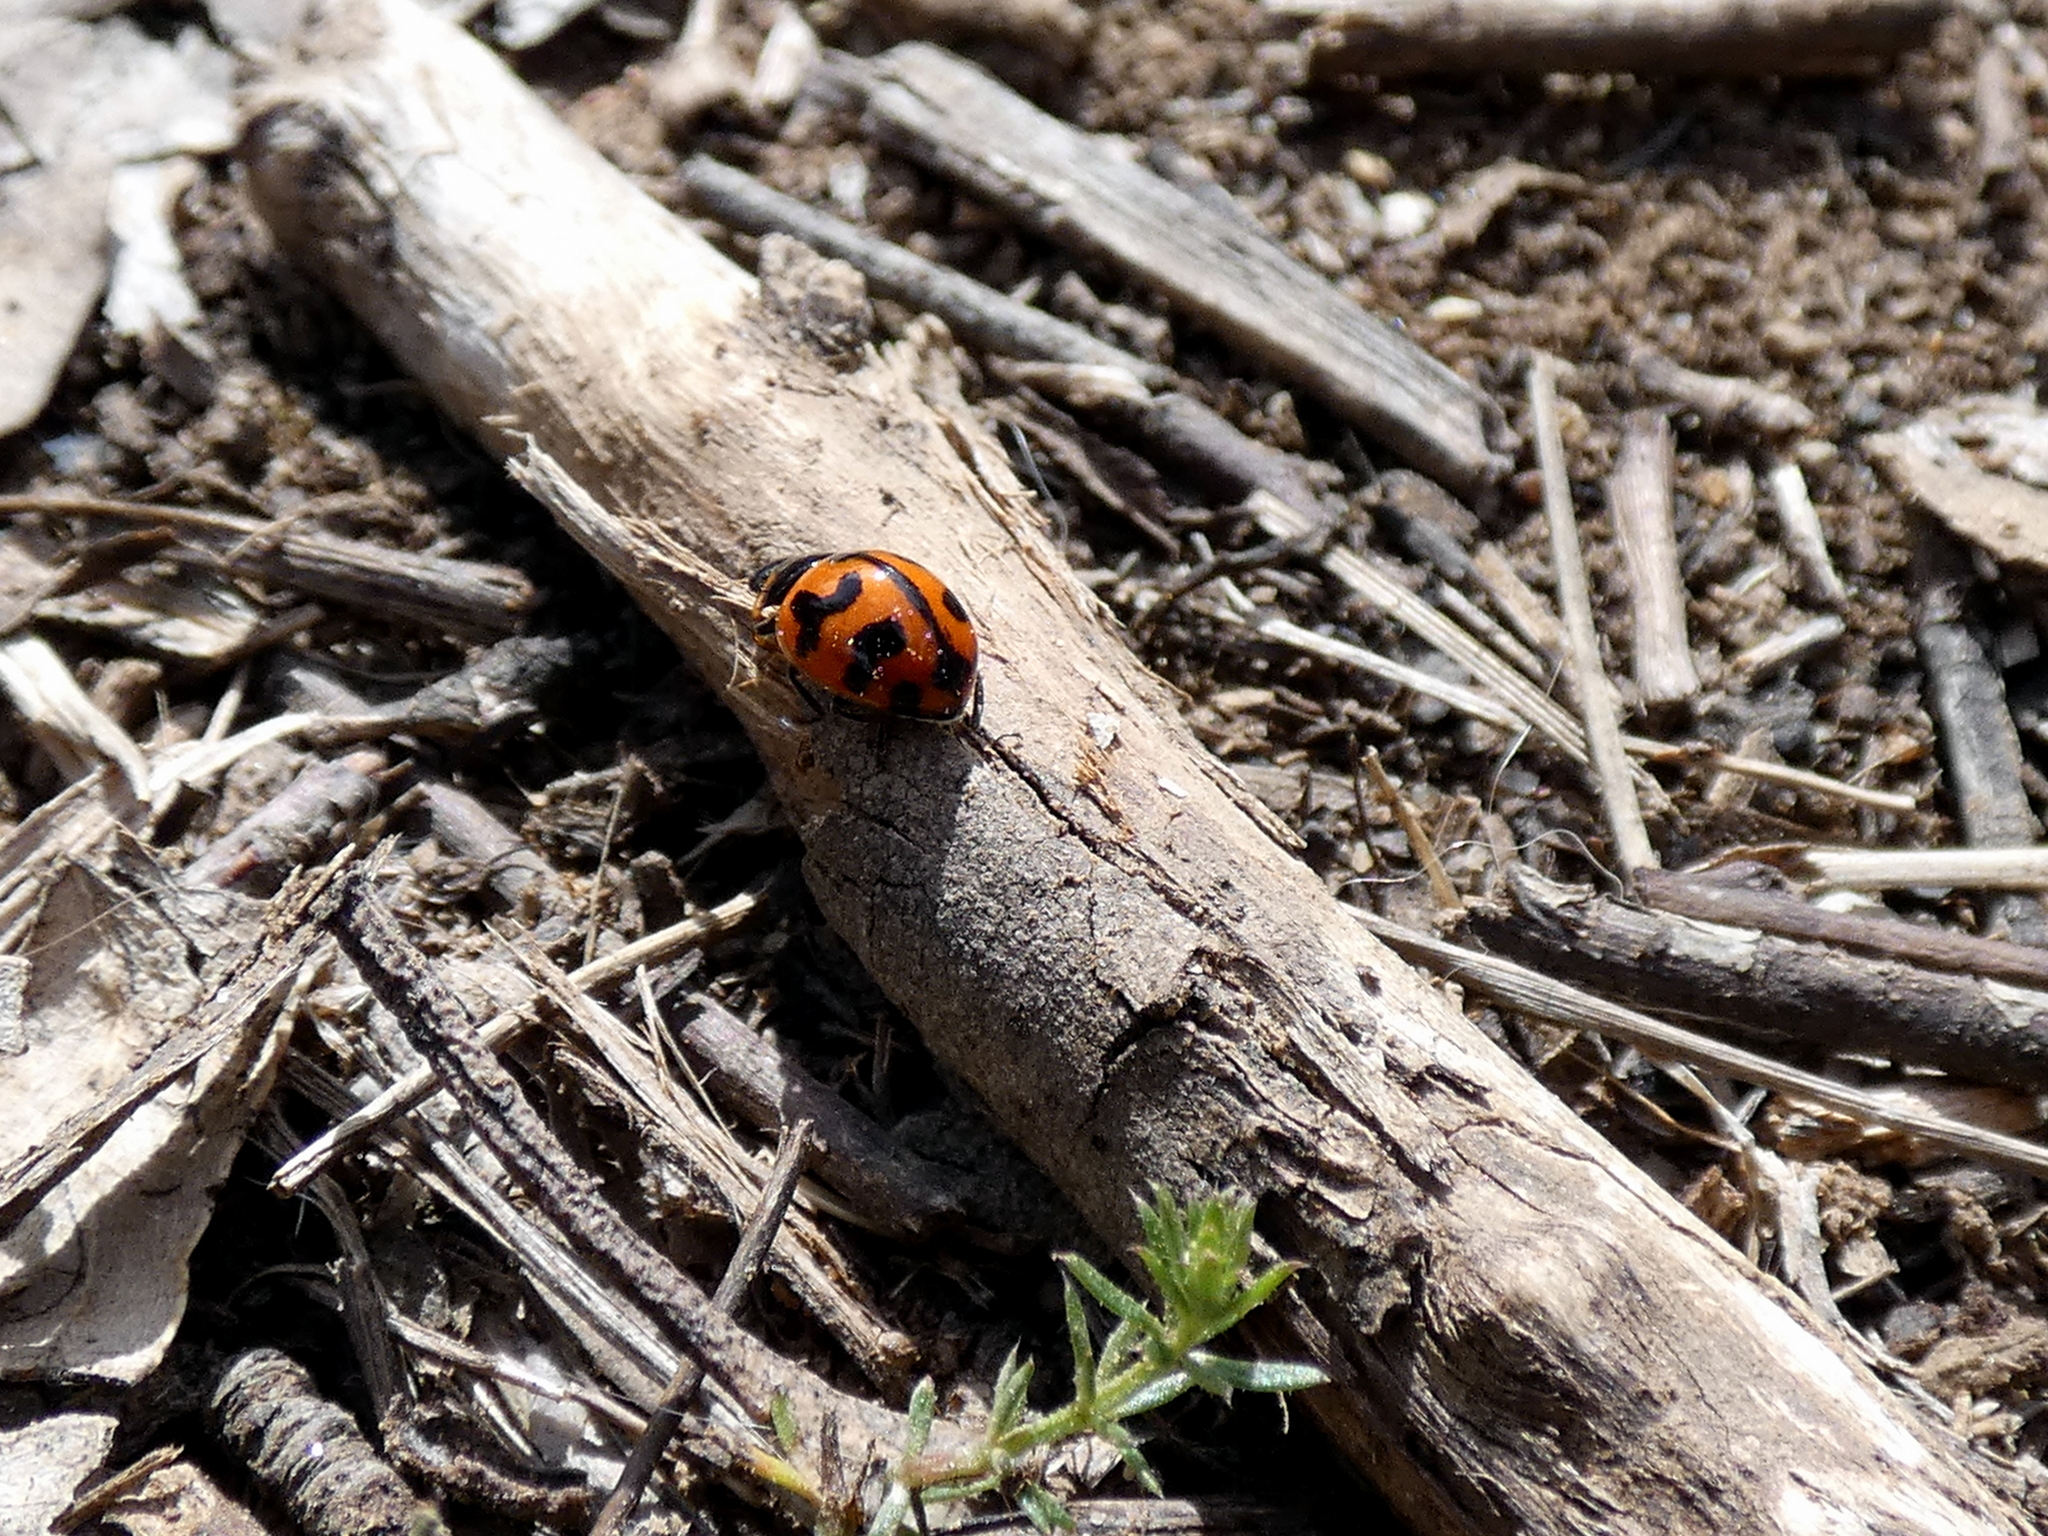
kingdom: Animalia
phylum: Arthropoda
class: Insecta
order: Coleoptera
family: Coccinellidae
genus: Coccinella
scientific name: Coccinella transversalis
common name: Transverse lady beetle
